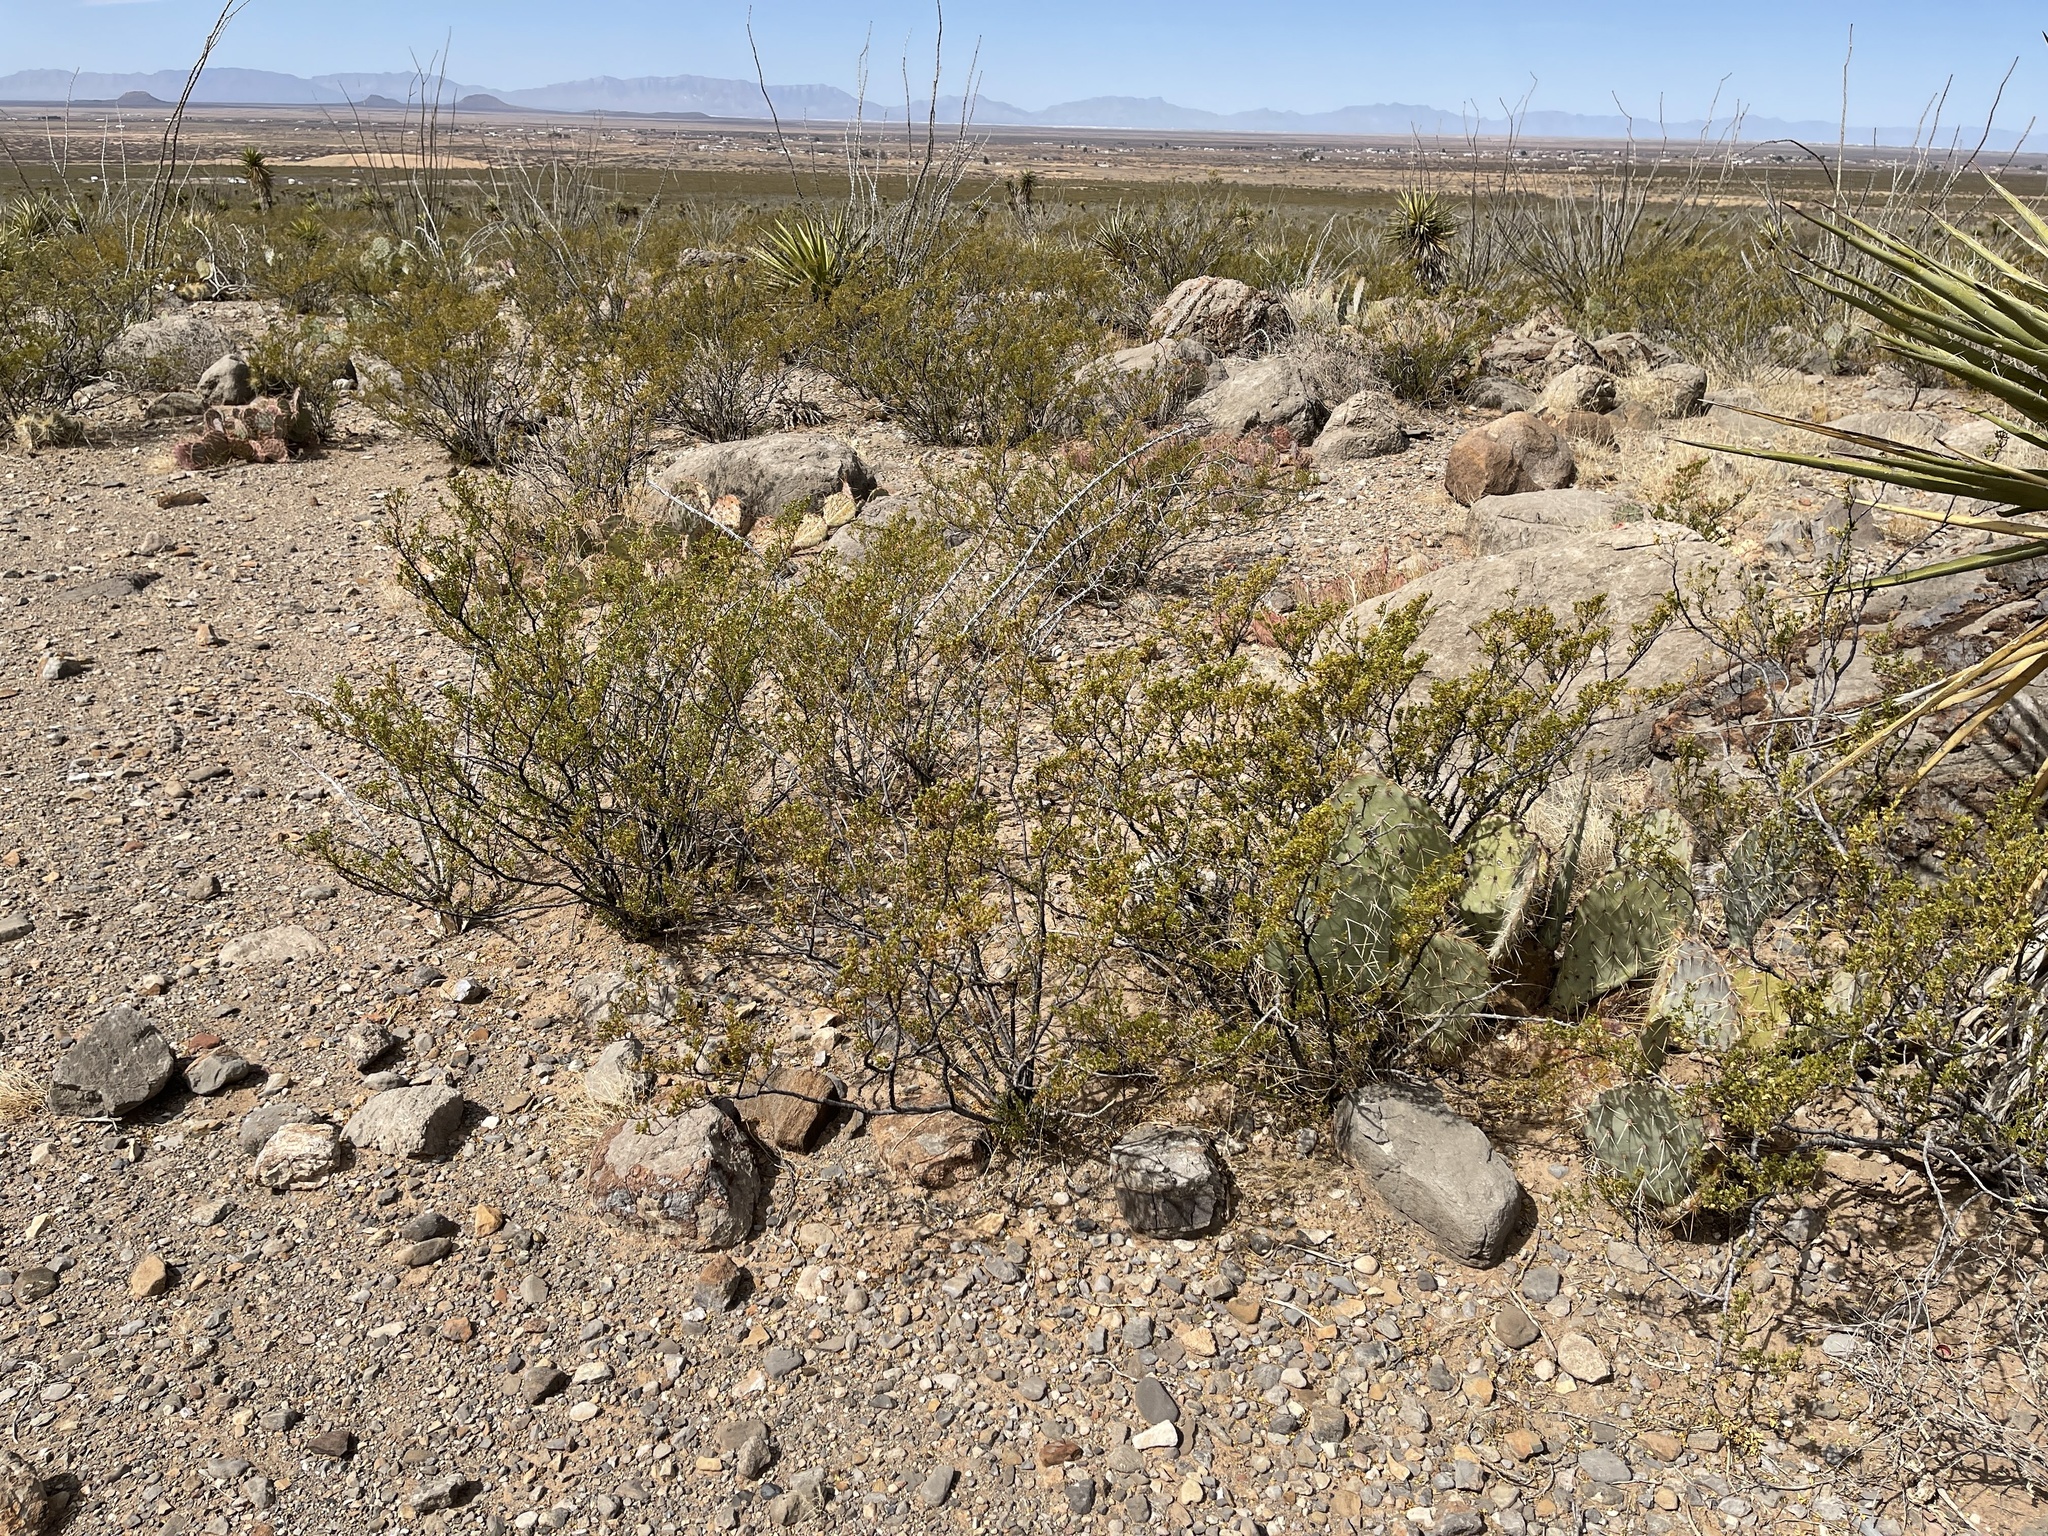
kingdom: Plantae
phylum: Tracheophyta
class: Magnoliopsida
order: Zygophyllales
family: Zygophyllaceae
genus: Larrea
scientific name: Larrea tridentata
